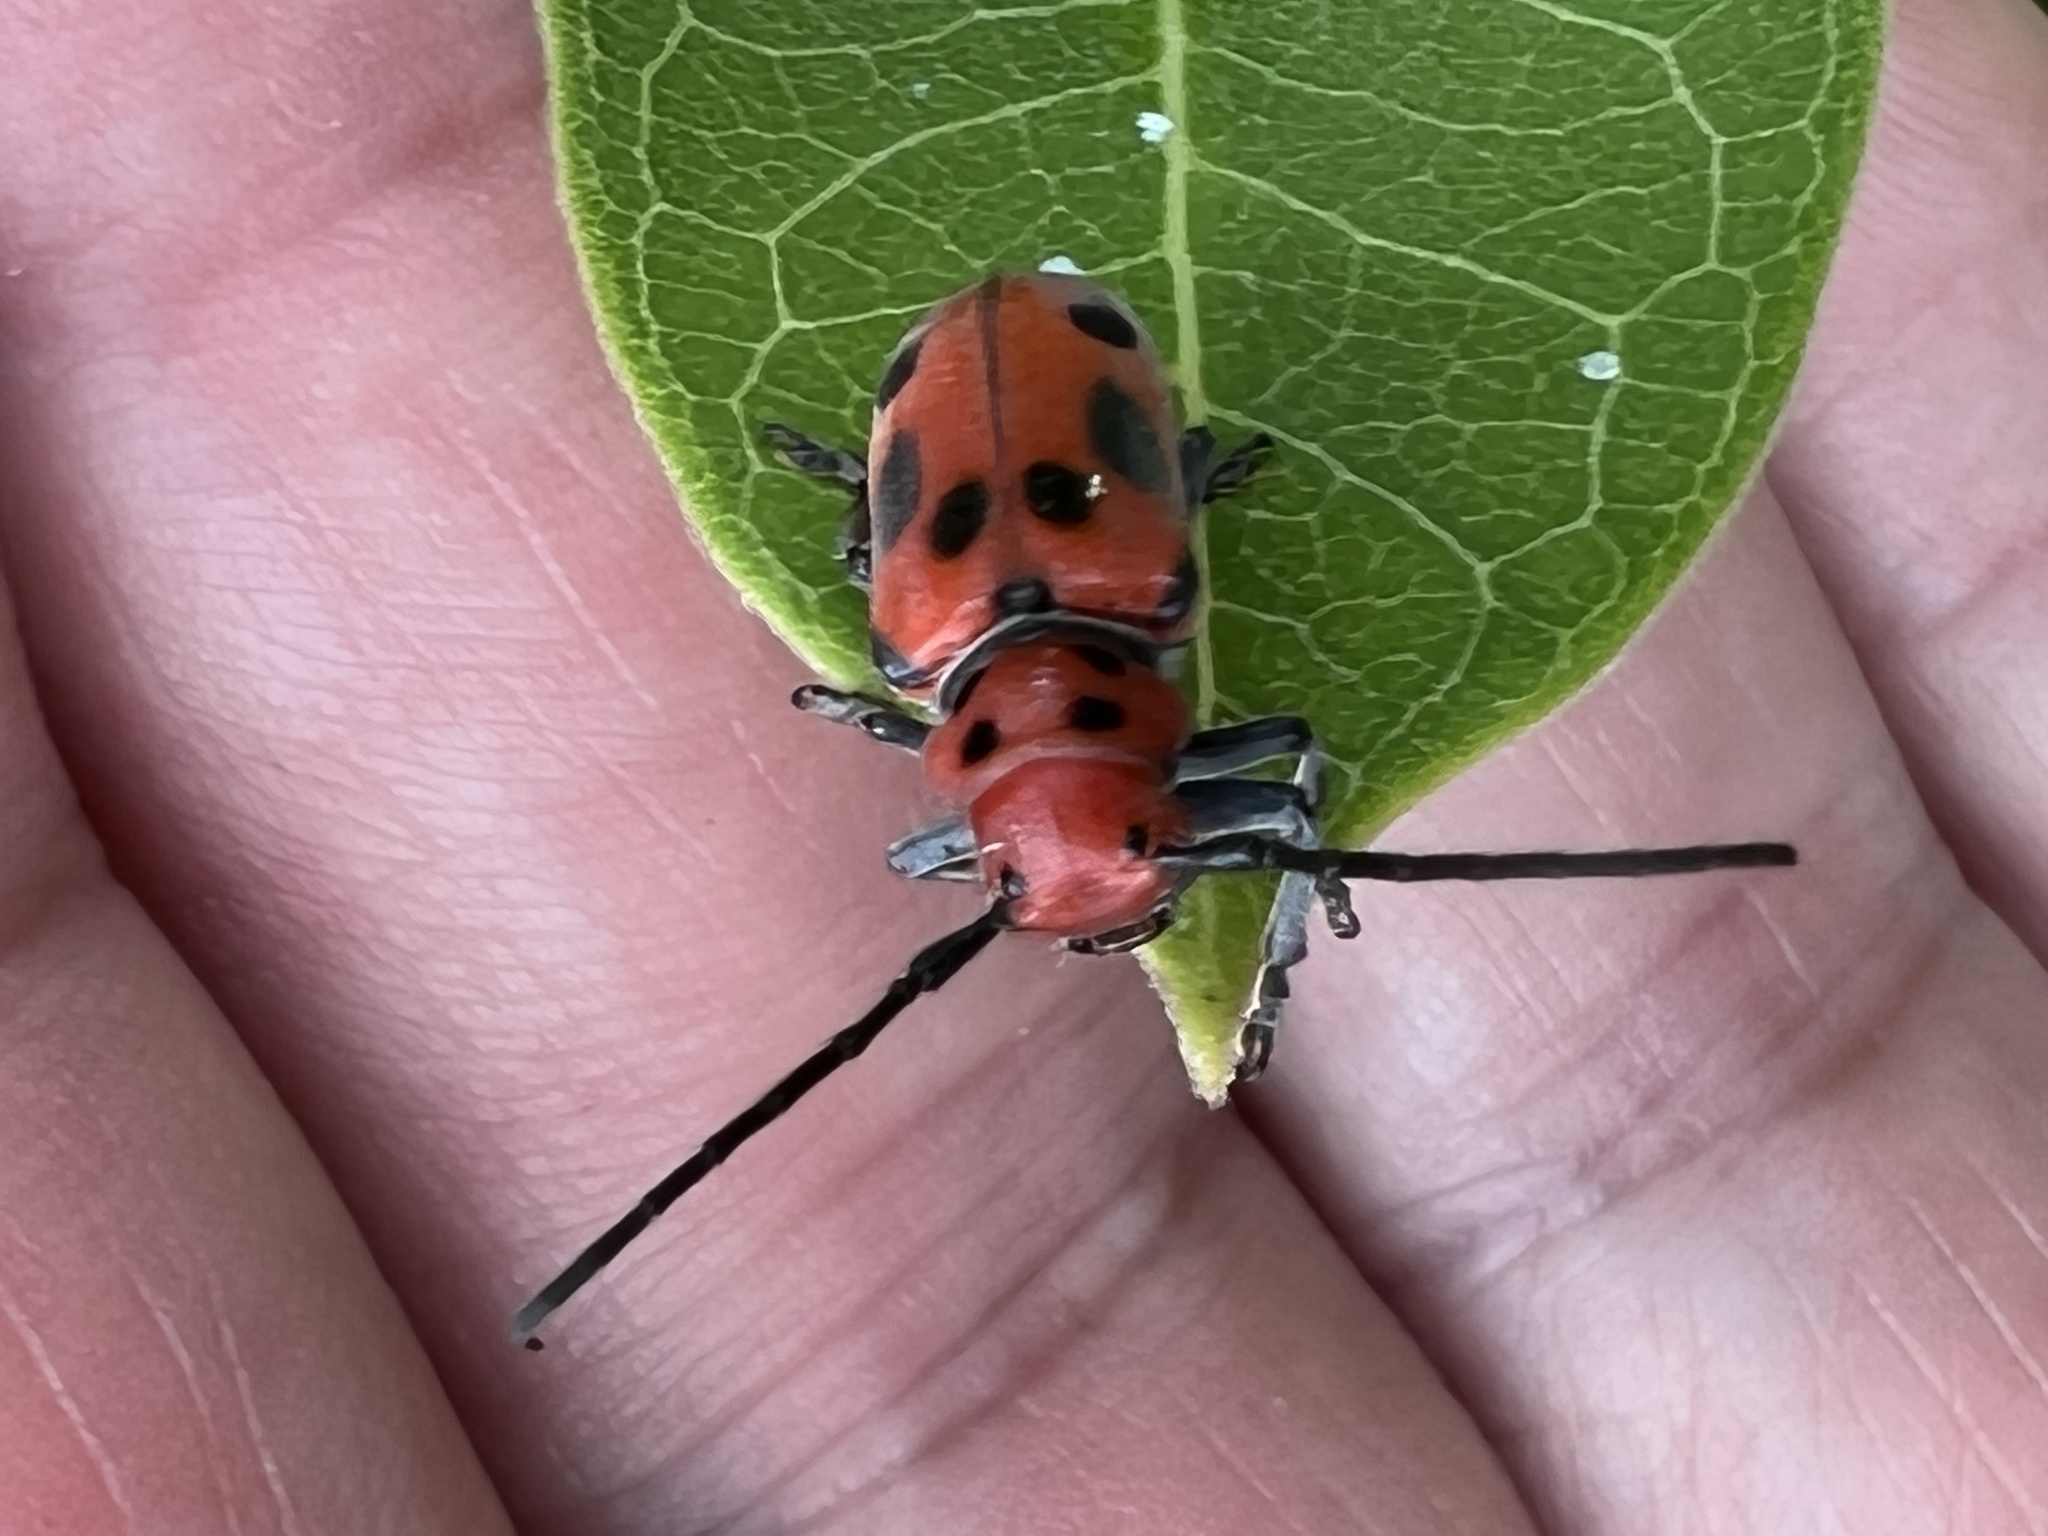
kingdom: Animalia
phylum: Arthropoda
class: Insecta
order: Coleoptera
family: Cerambycidae
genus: Tetraopes
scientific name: Tetraopes tetrophthalmus
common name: Red milkweed beetle
